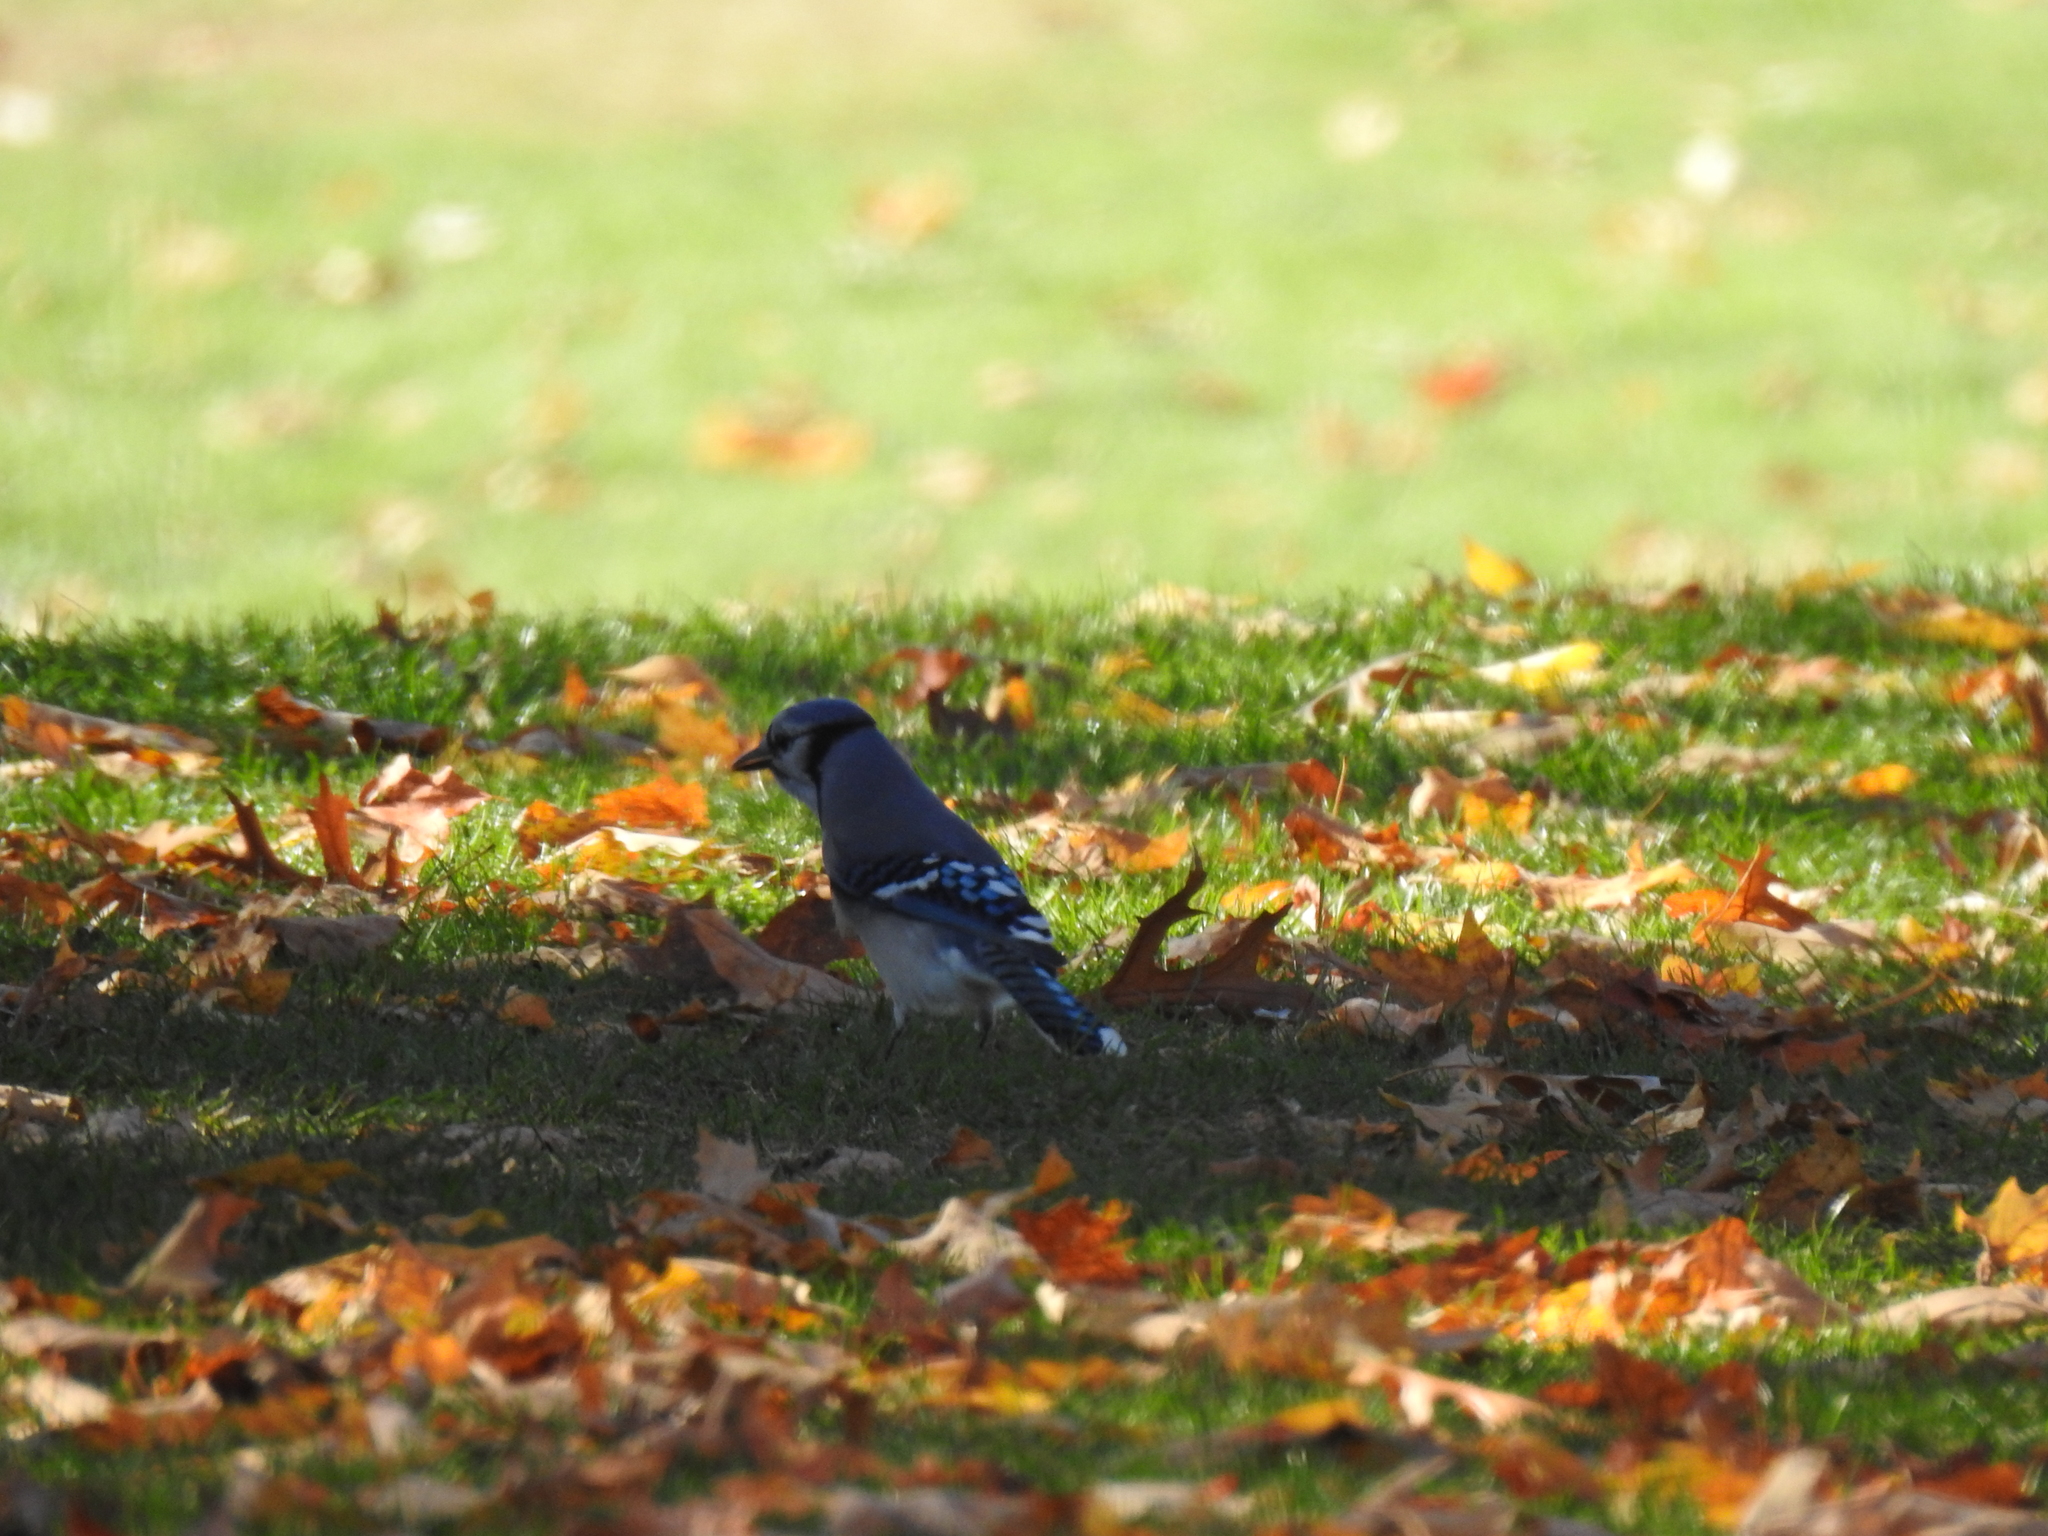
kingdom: Animalia
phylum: Chordata
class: Aves
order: Passeriformes
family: Corvidae
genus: Cyanocitta
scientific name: Cyanocitta cristata
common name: Blue jay
